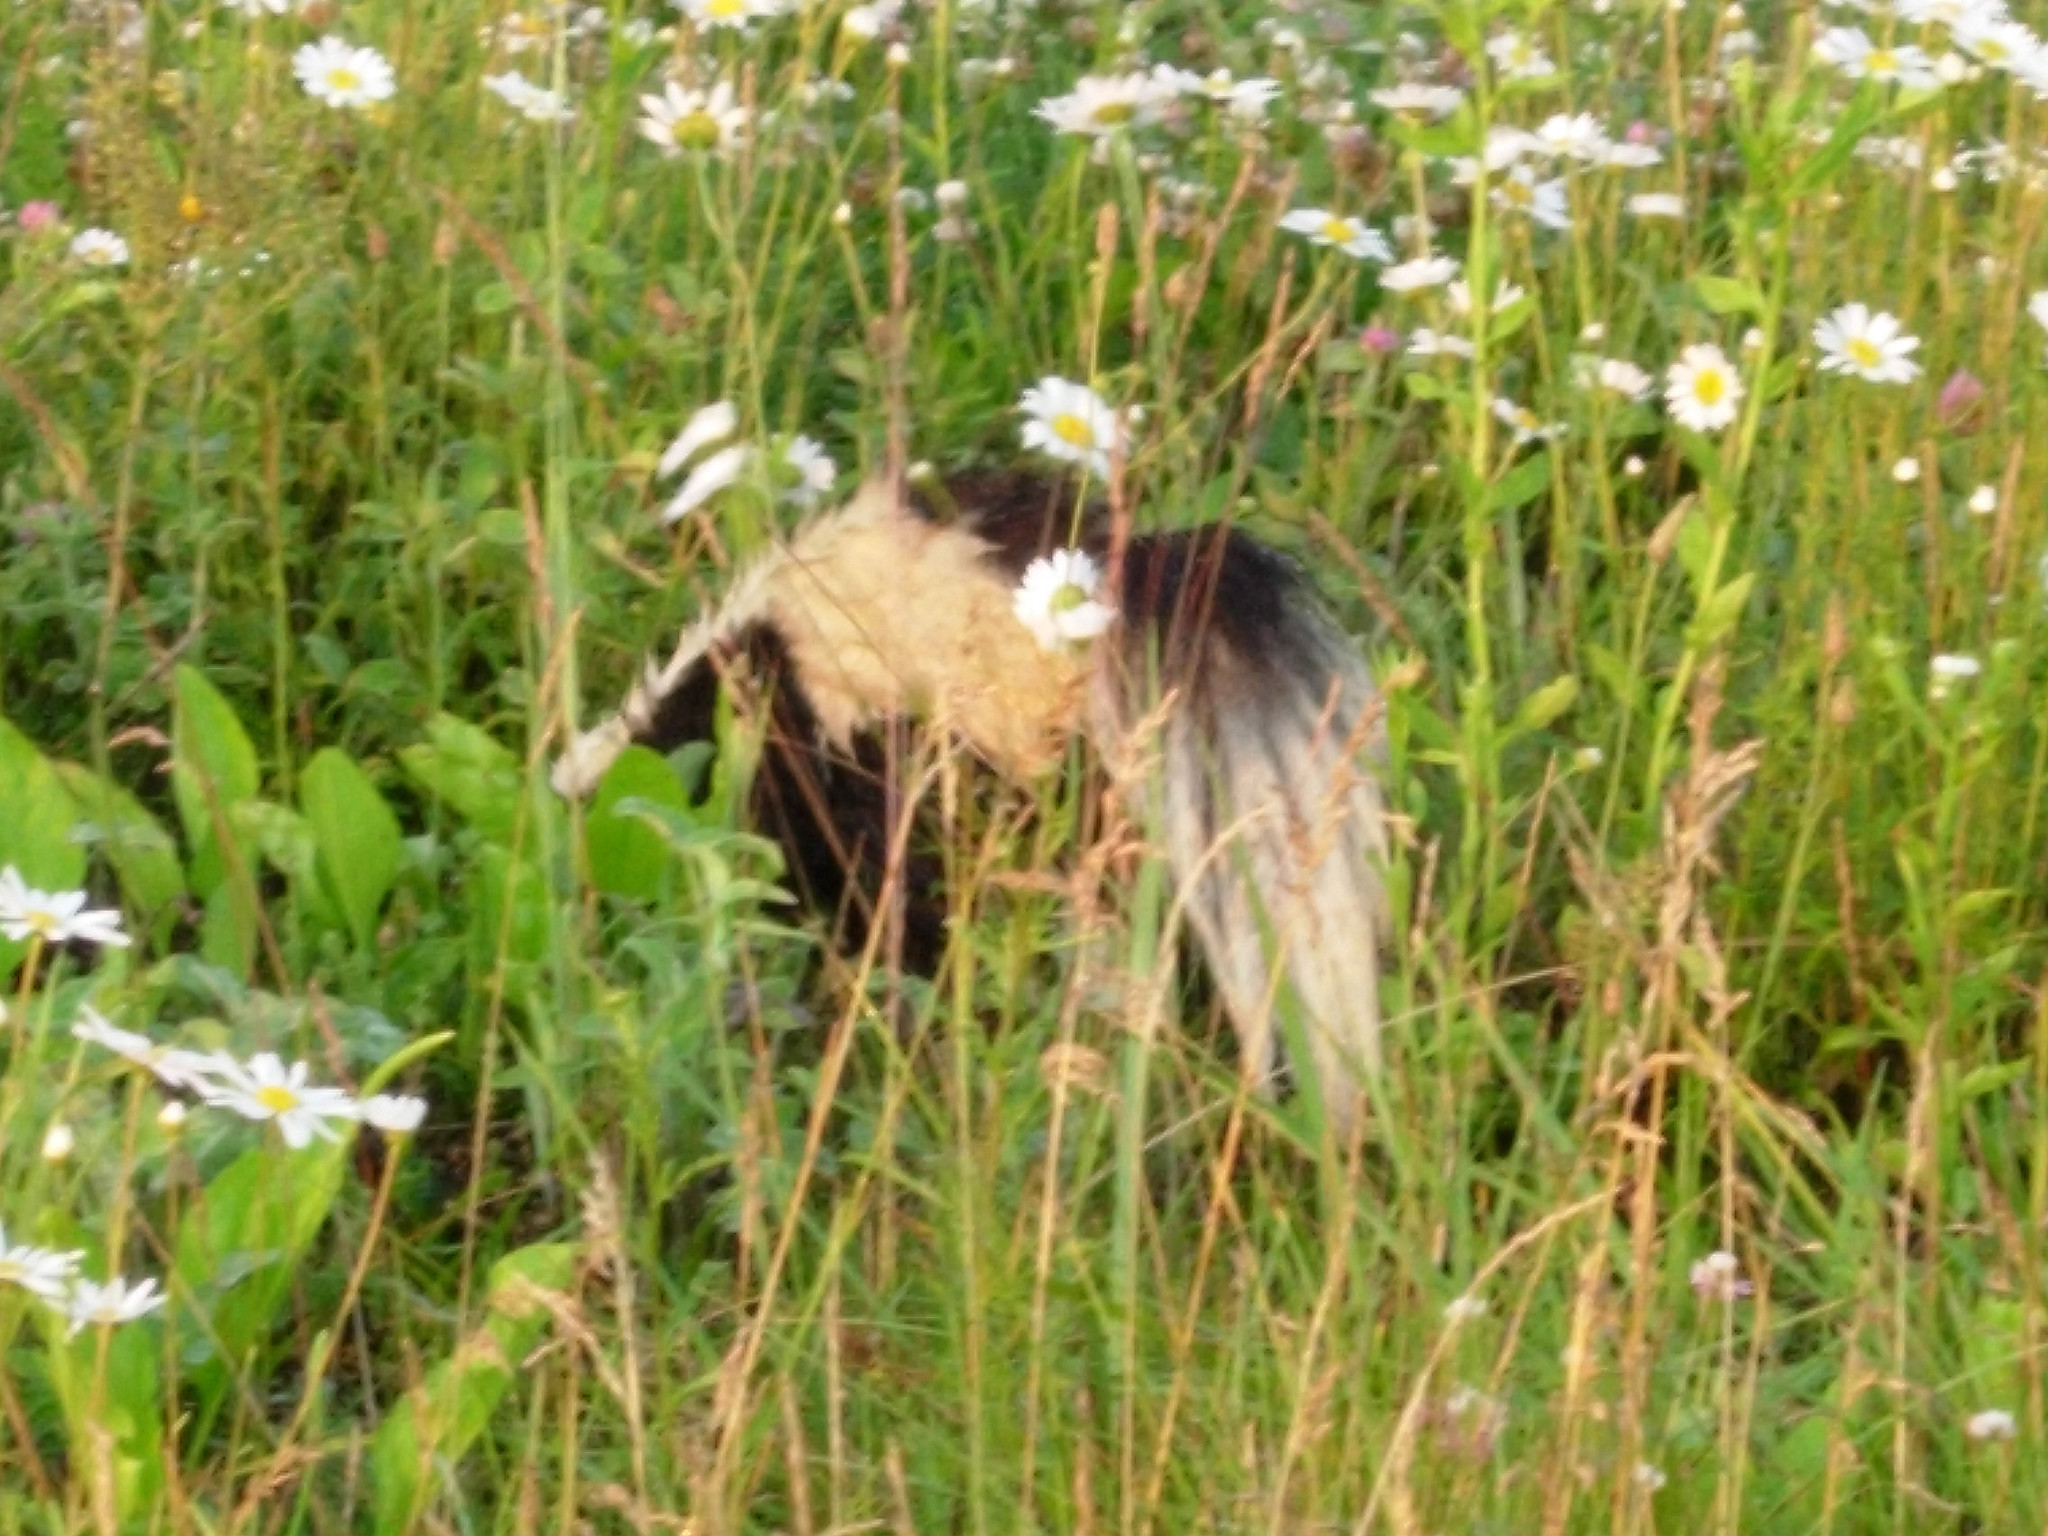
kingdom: Animalia
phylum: Chordata
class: Mammalia
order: Carnivora
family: Mephitidae
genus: Mephitis
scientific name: Mephitis mephitis
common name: Striped skunk
